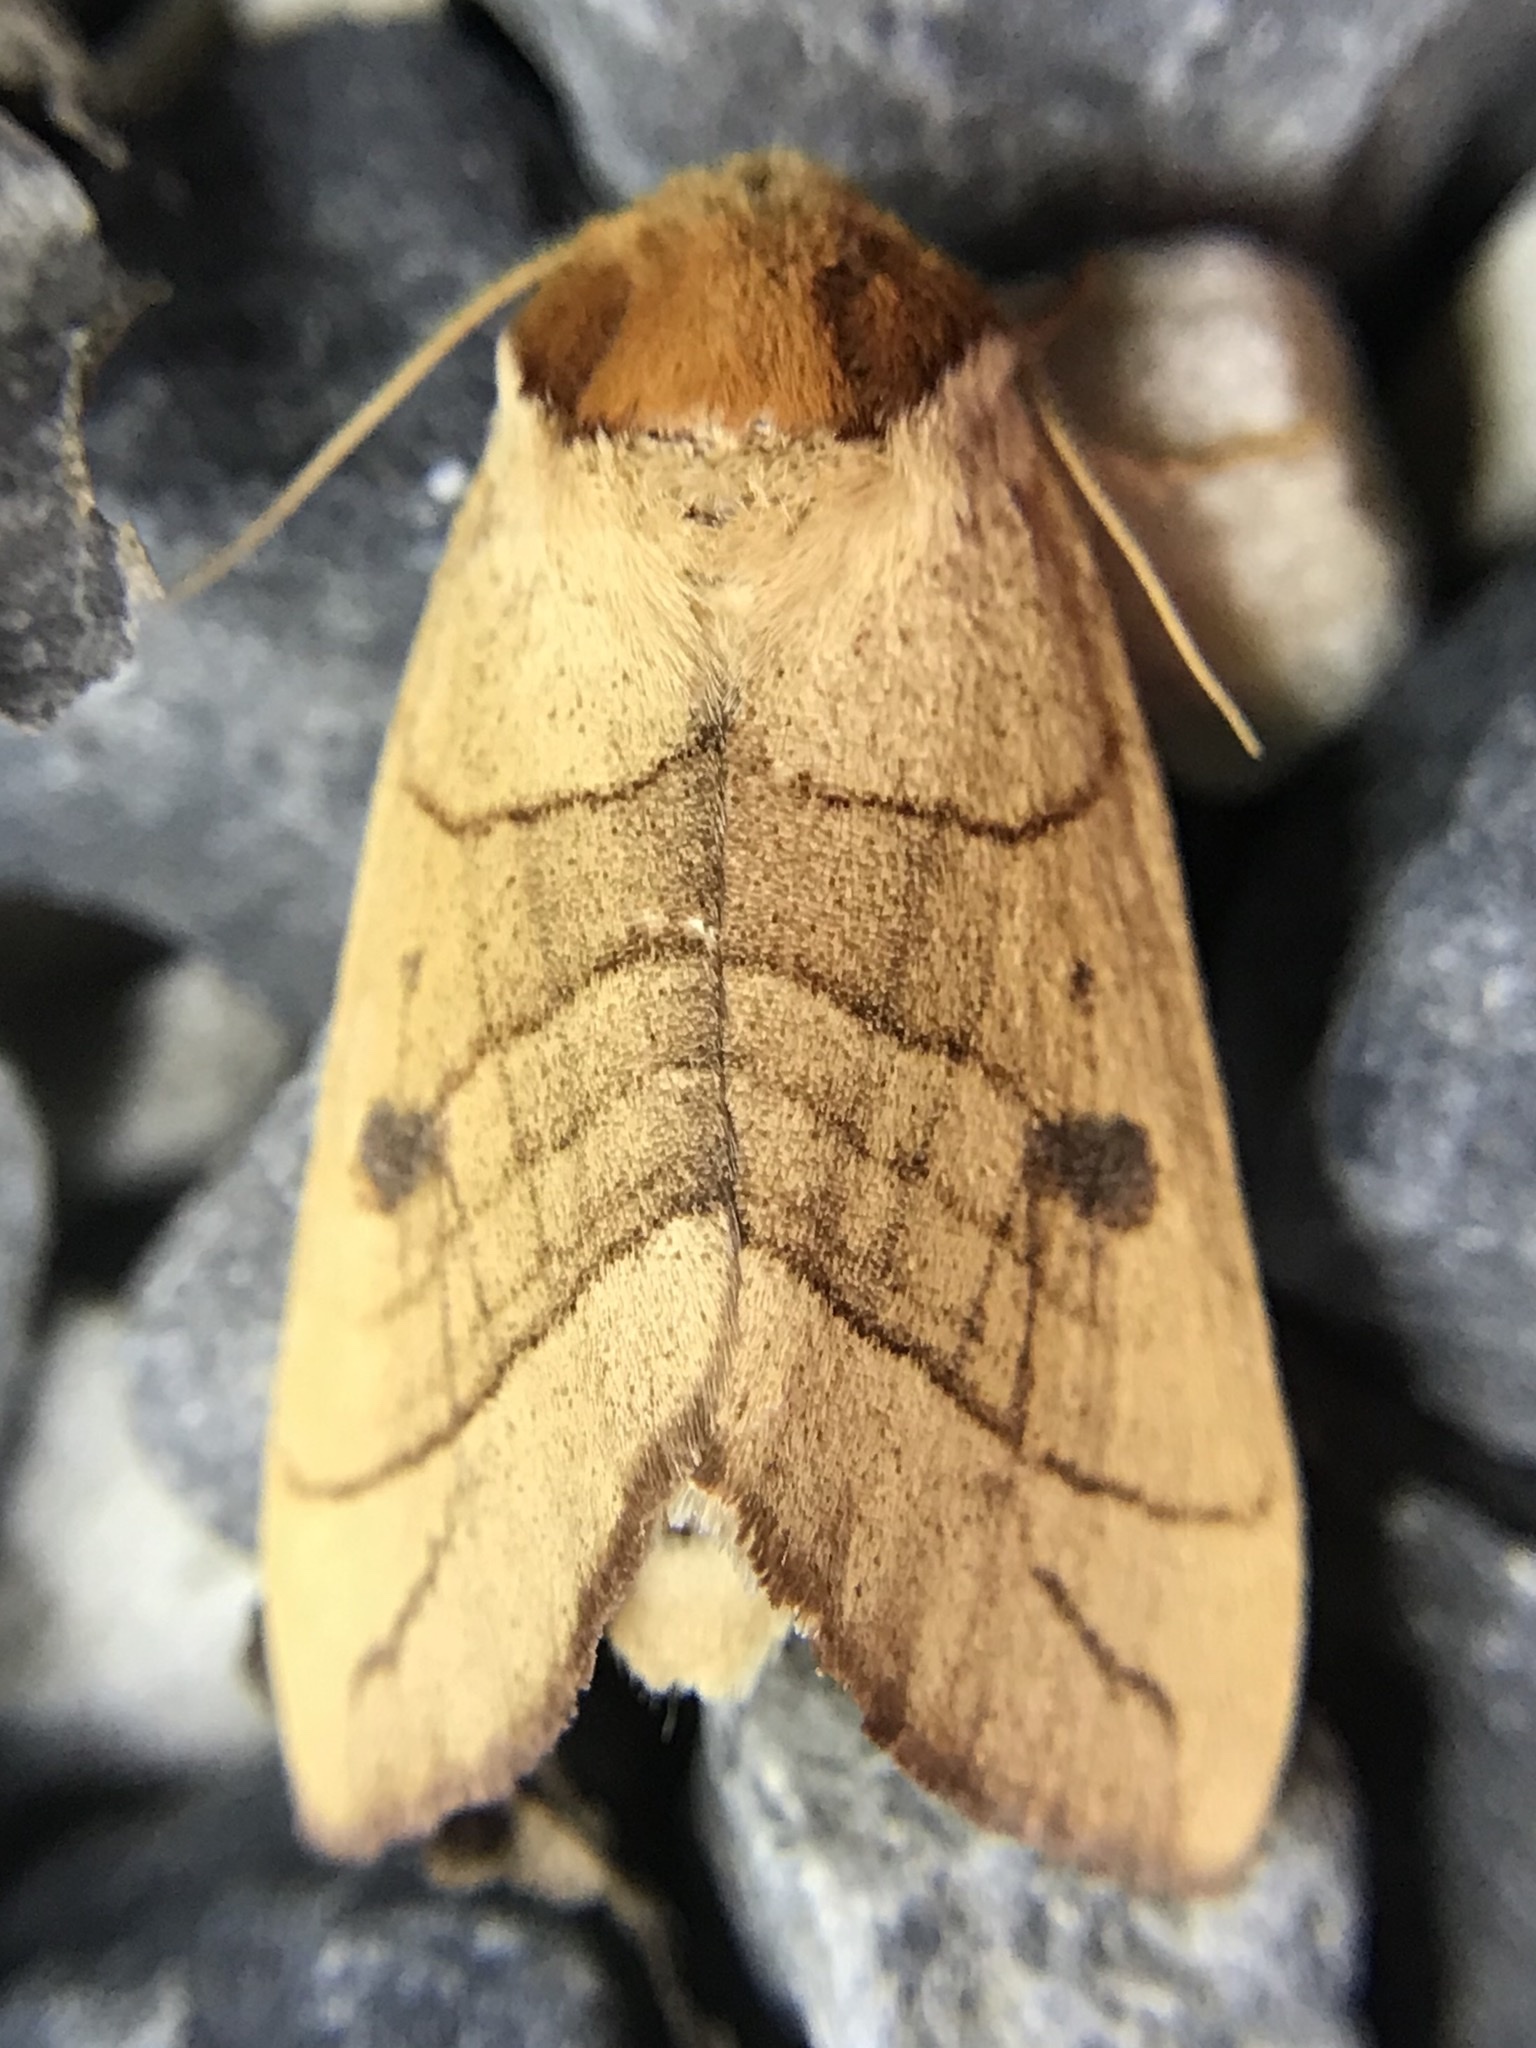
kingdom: Animalia
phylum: Arthropoda
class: Insecta
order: Lepidoptera
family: Notodontidae
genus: Datana
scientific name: Datana perspicua
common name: Spotted datana
